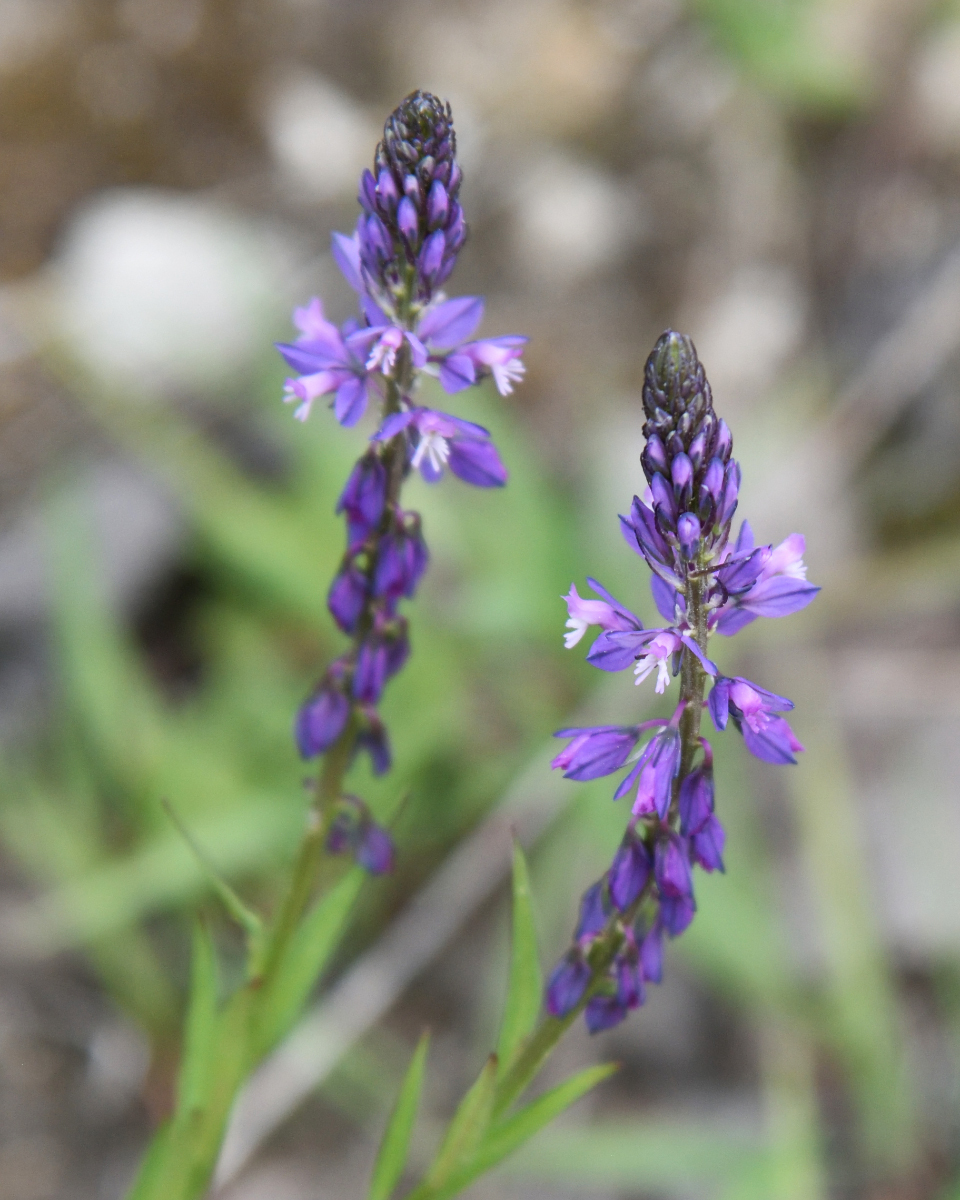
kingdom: Plantae
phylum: Tracheophyta
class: Magnoliopsida
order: Fabales
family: Polygalaceae
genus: Polygala
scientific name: Polygala comosa
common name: Tufted milkwort
